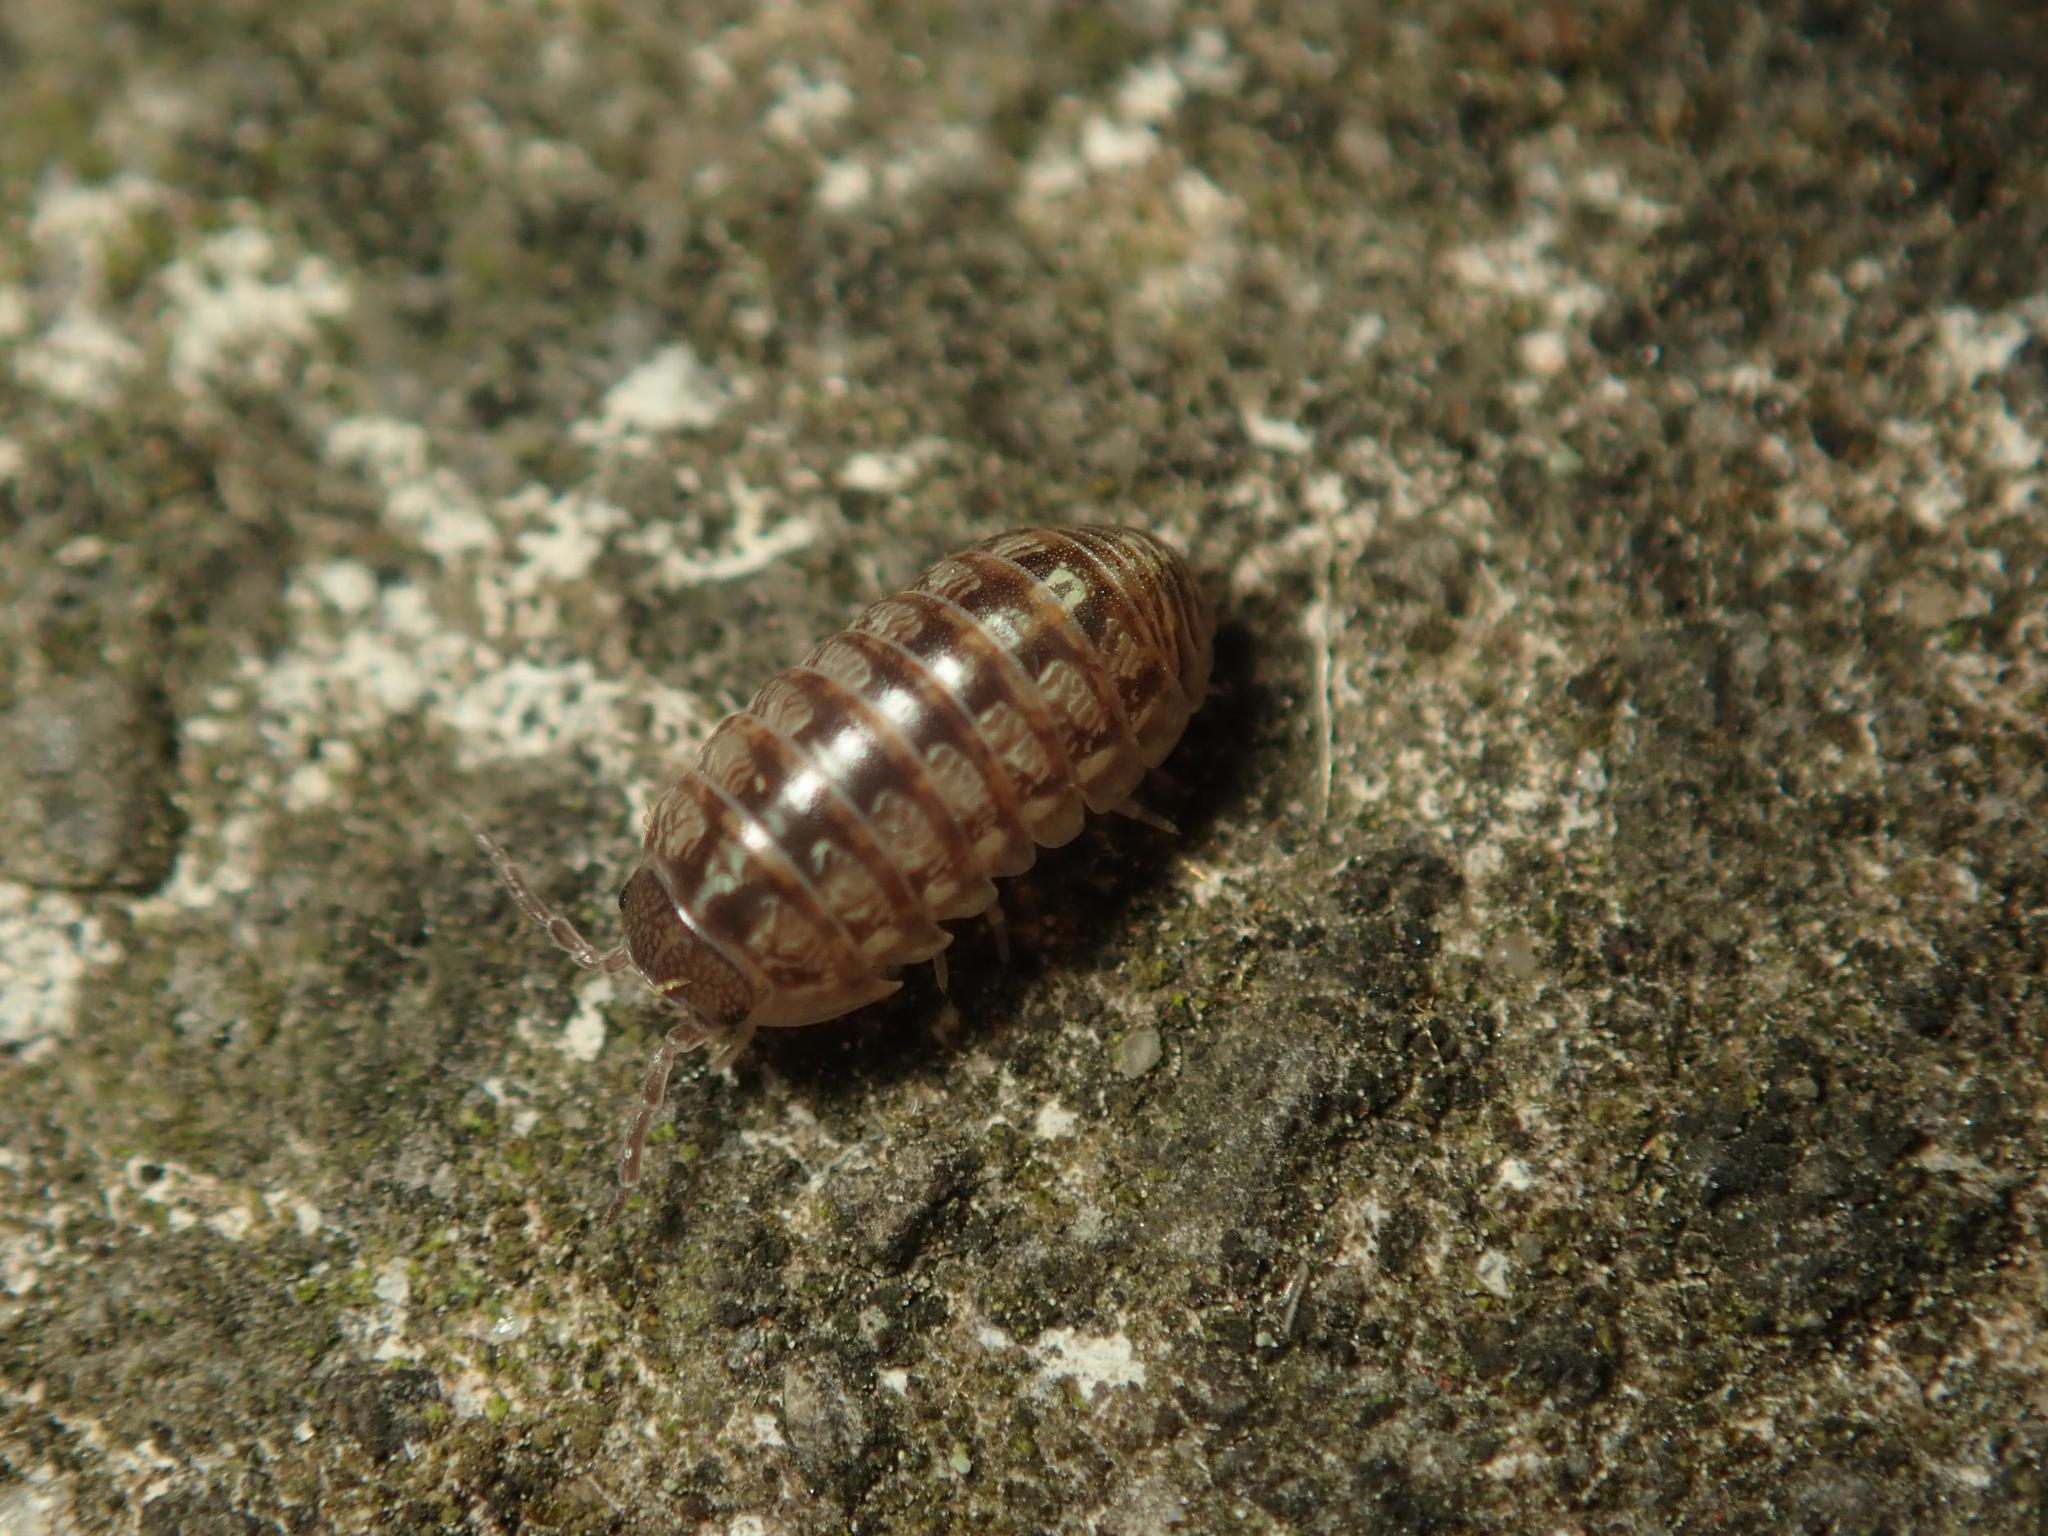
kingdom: Animalia
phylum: Arthropoda
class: Malacostraca
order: Isopoda
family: Armadillidiidae
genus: Armadillidium
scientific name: Armadillidium vulgare
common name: Common pill woodlouse
